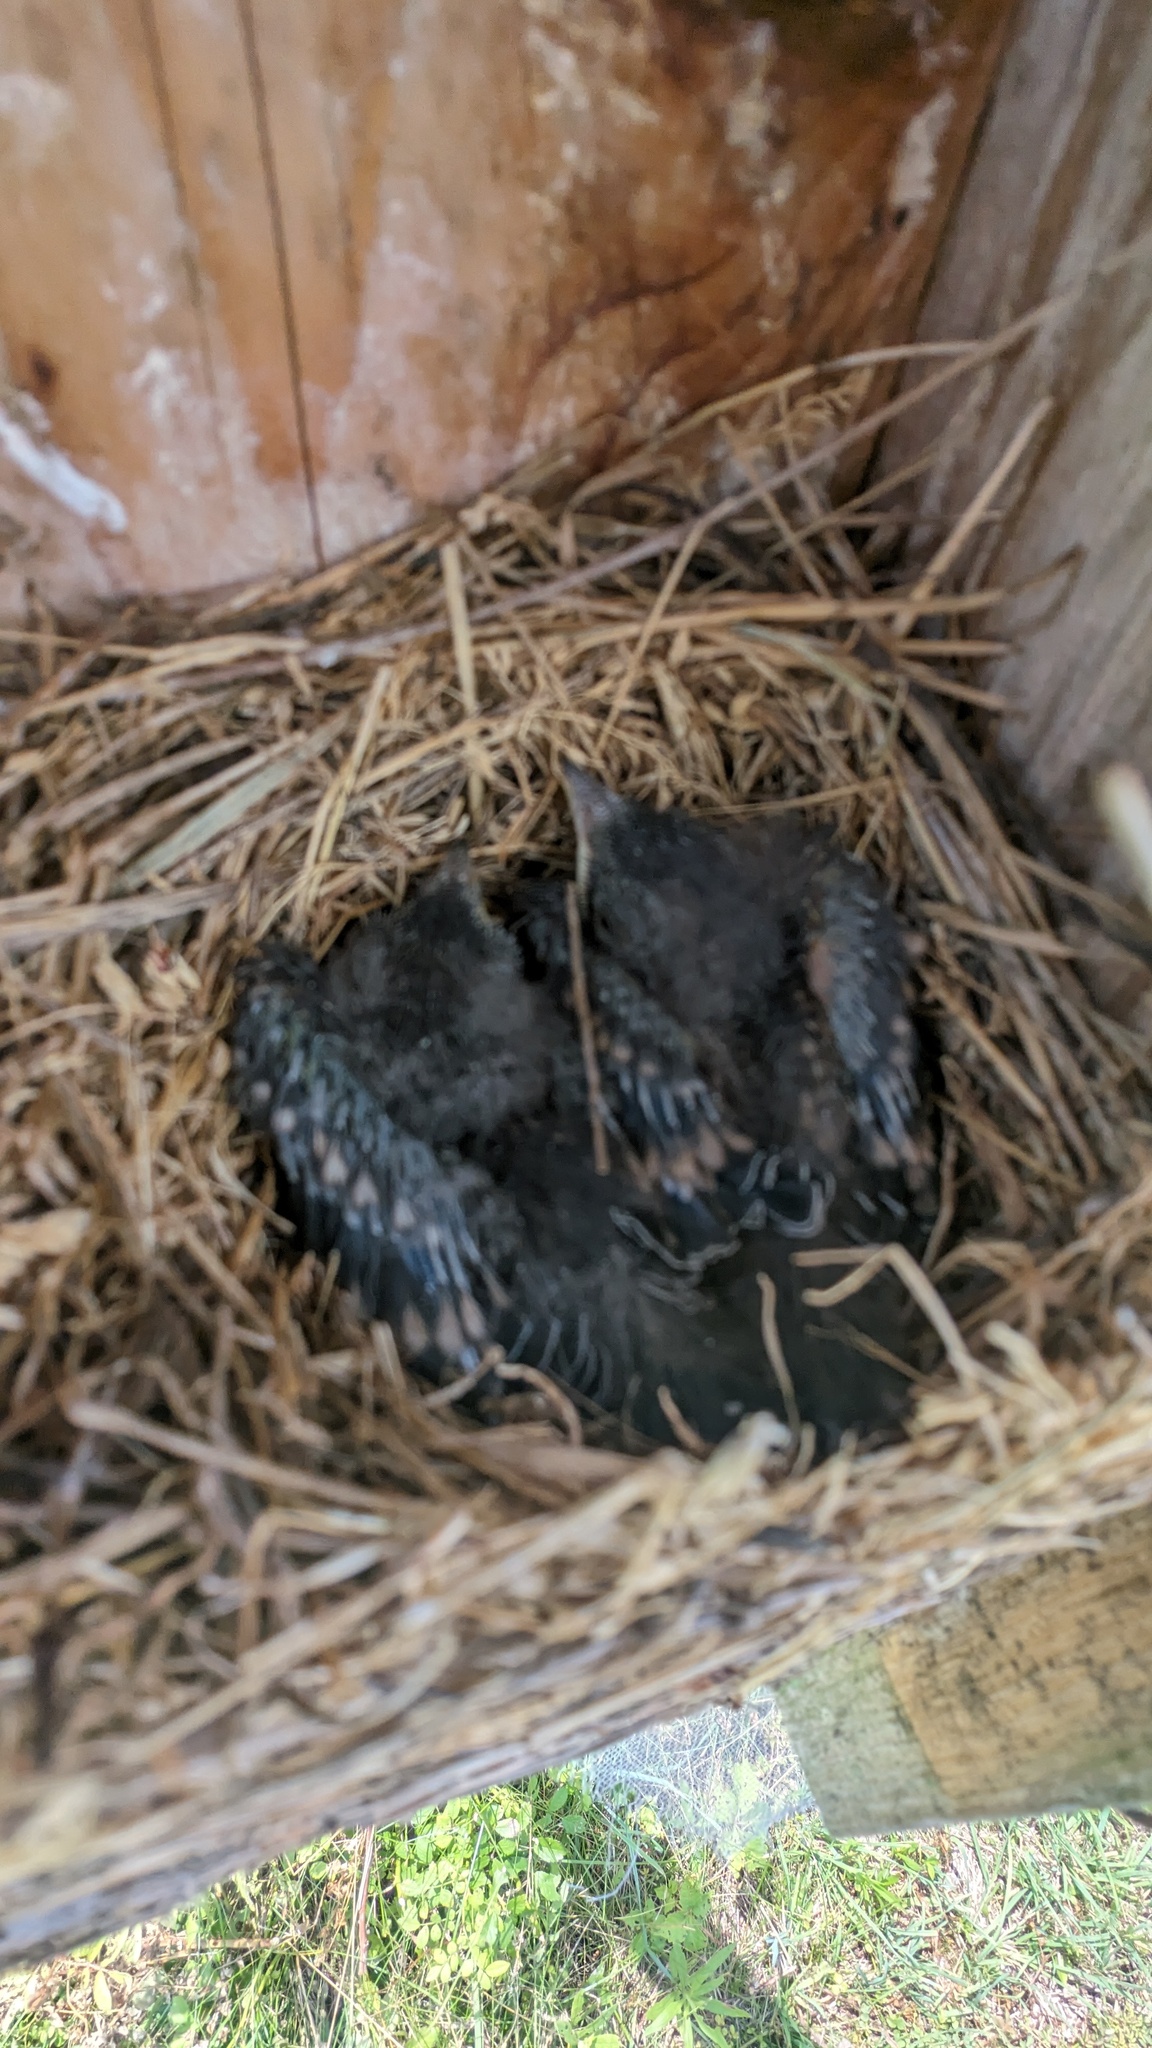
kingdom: Animalia
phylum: Chordata
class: Aves
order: Passeriformes
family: Turdidae
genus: Sialia
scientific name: Sialia sialis
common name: Eastern bluebird
